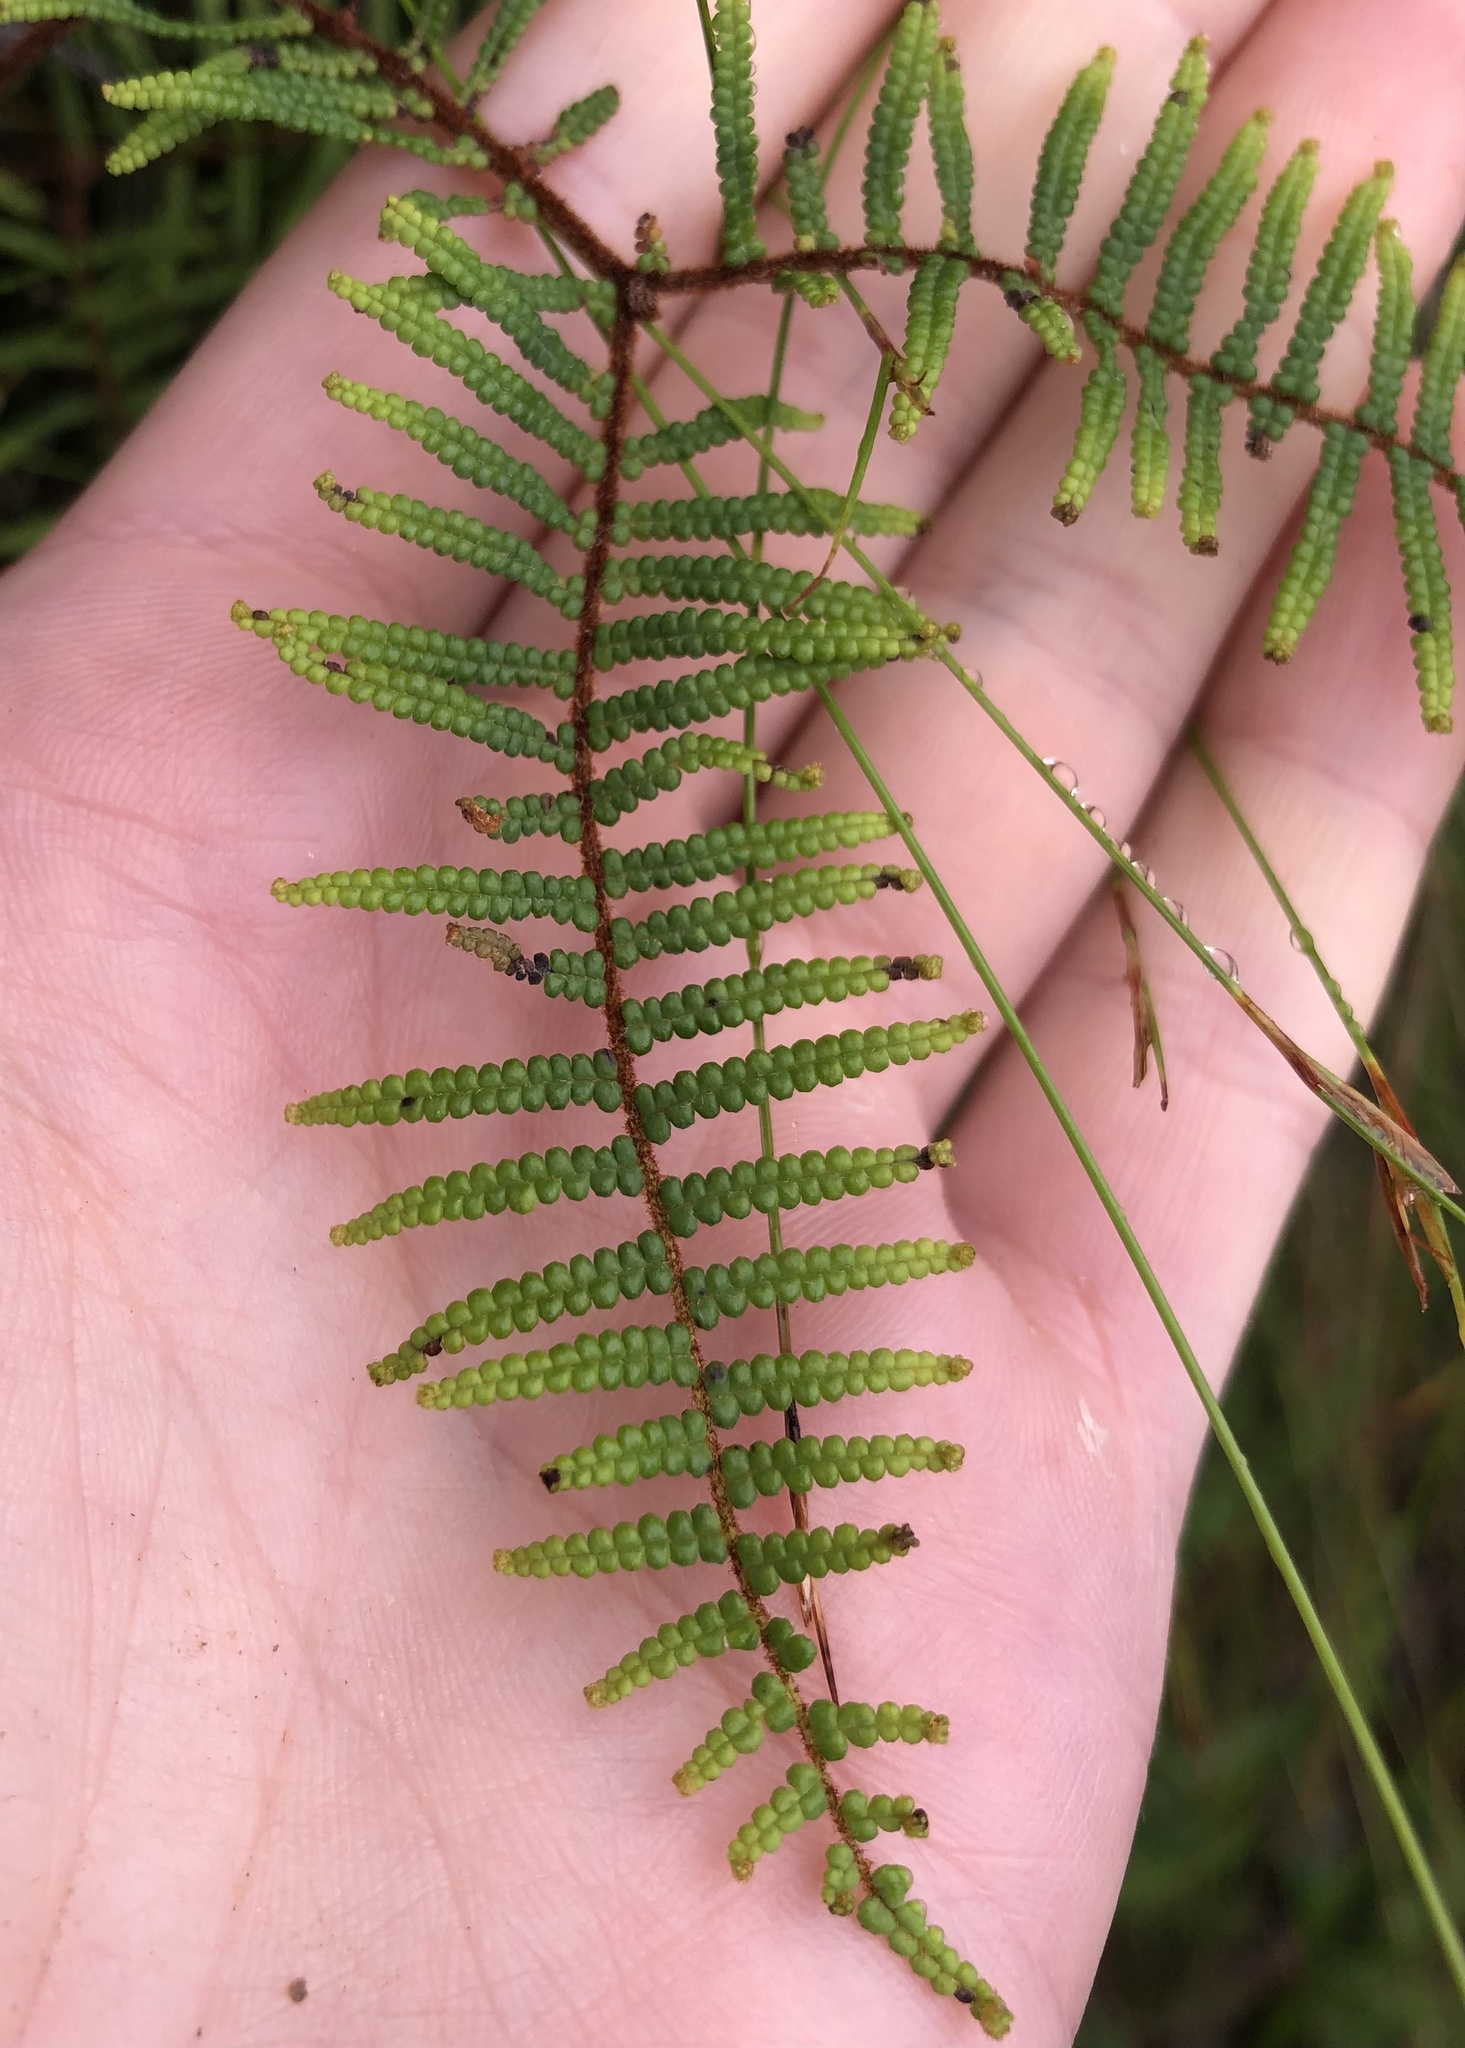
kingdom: Plantae
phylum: Tracheophyta
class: Polypodiopsida
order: Gleicheniales
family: Gleicheniaceae
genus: Gleichenia
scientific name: Gleichenia dicarpa
